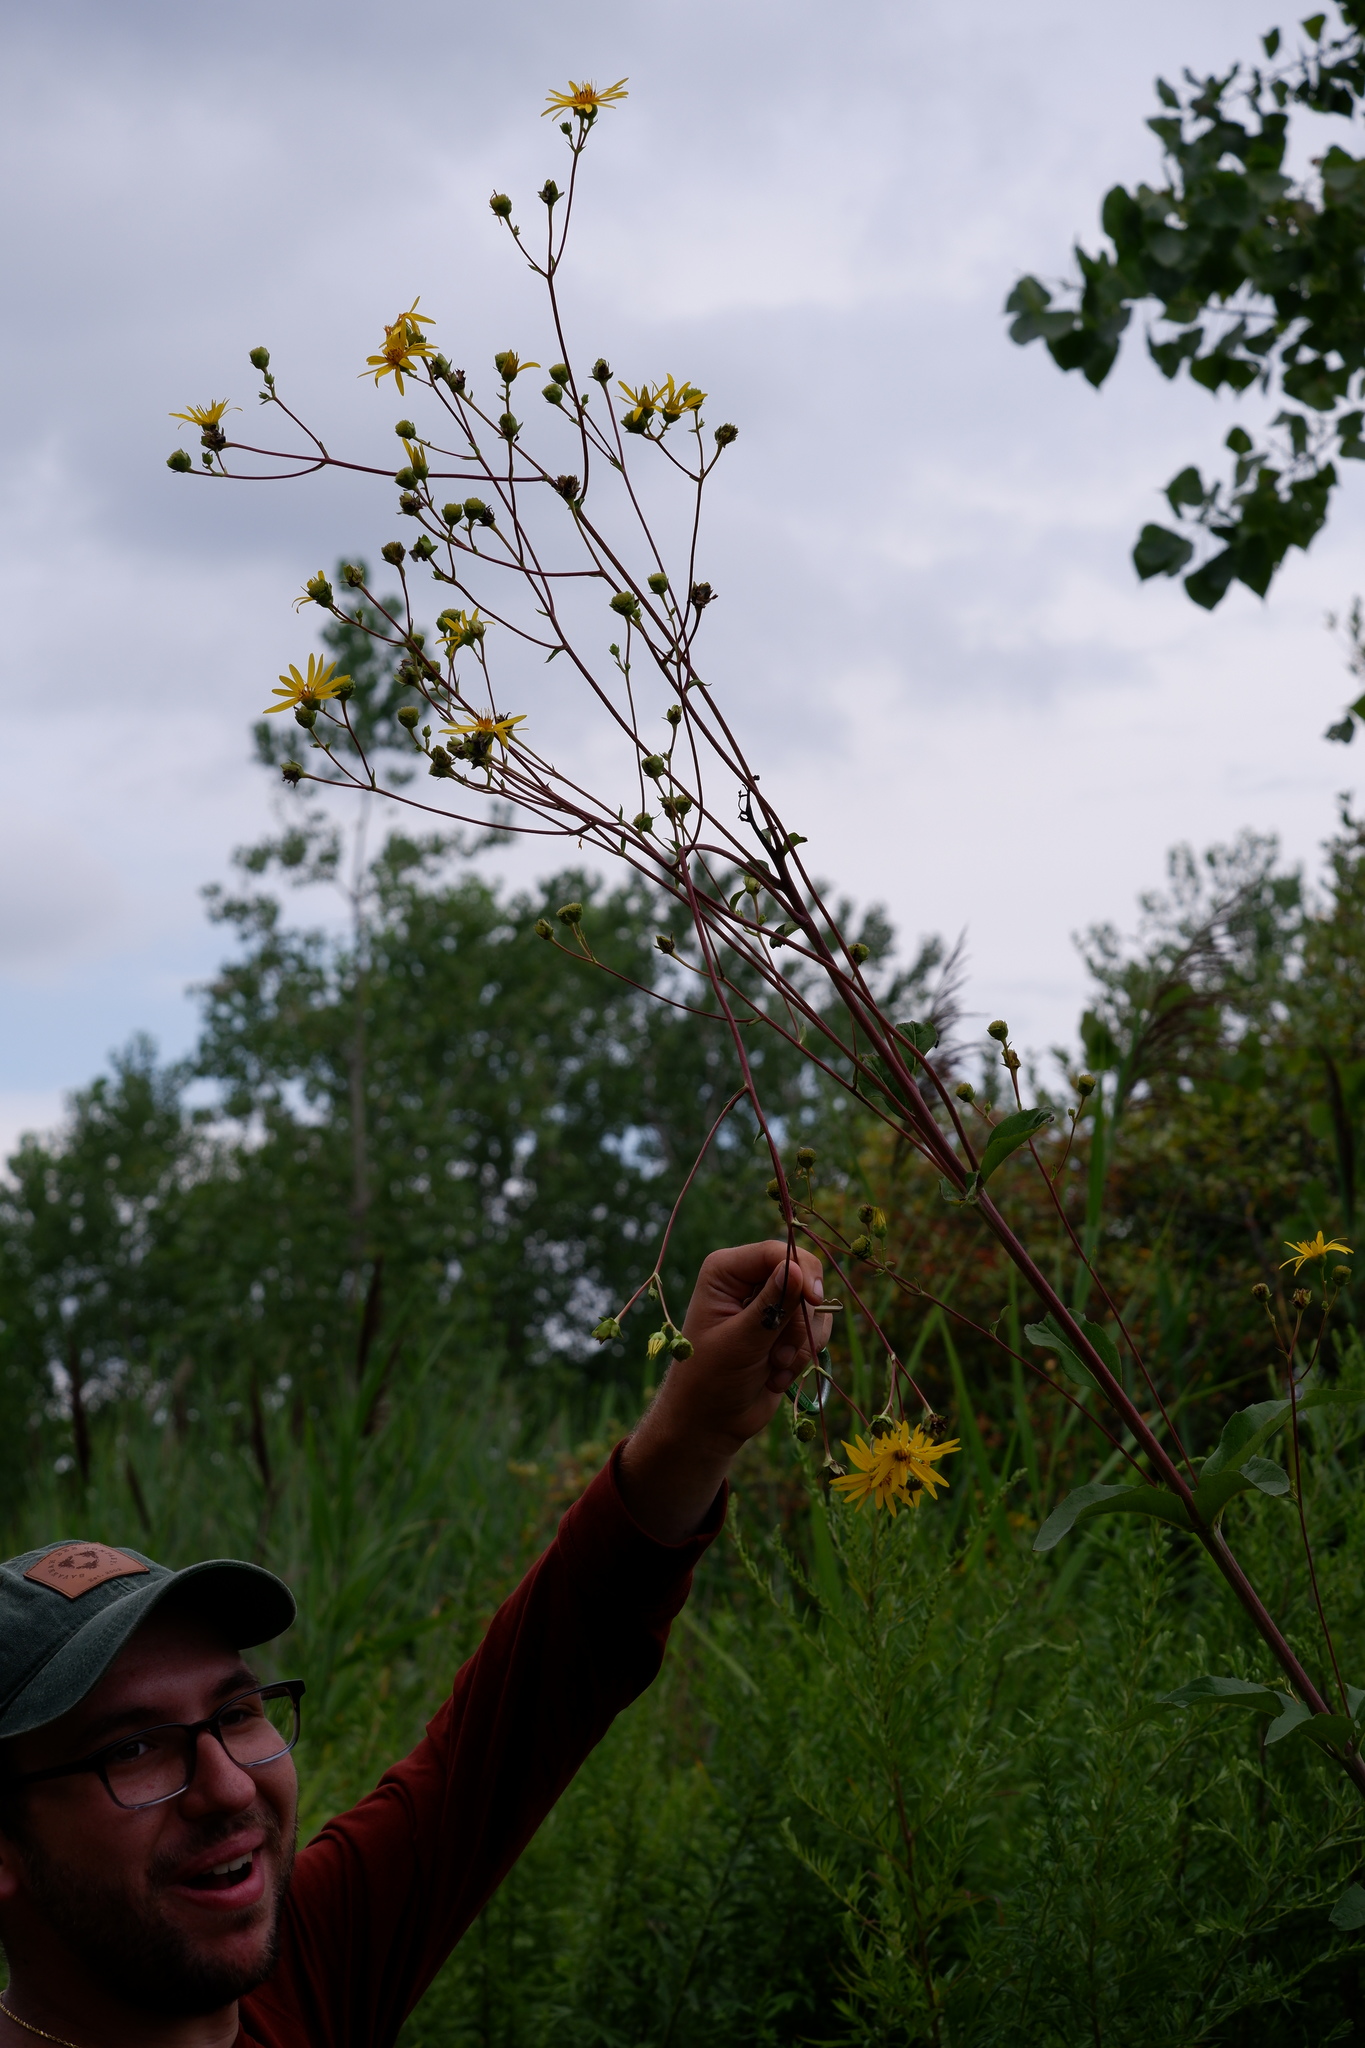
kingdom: Plantae
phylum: Tracheophyta
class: Magnoliopsida
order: Asterales
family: Asteraceae
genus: Silphium
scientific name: Silphium asteriscus
